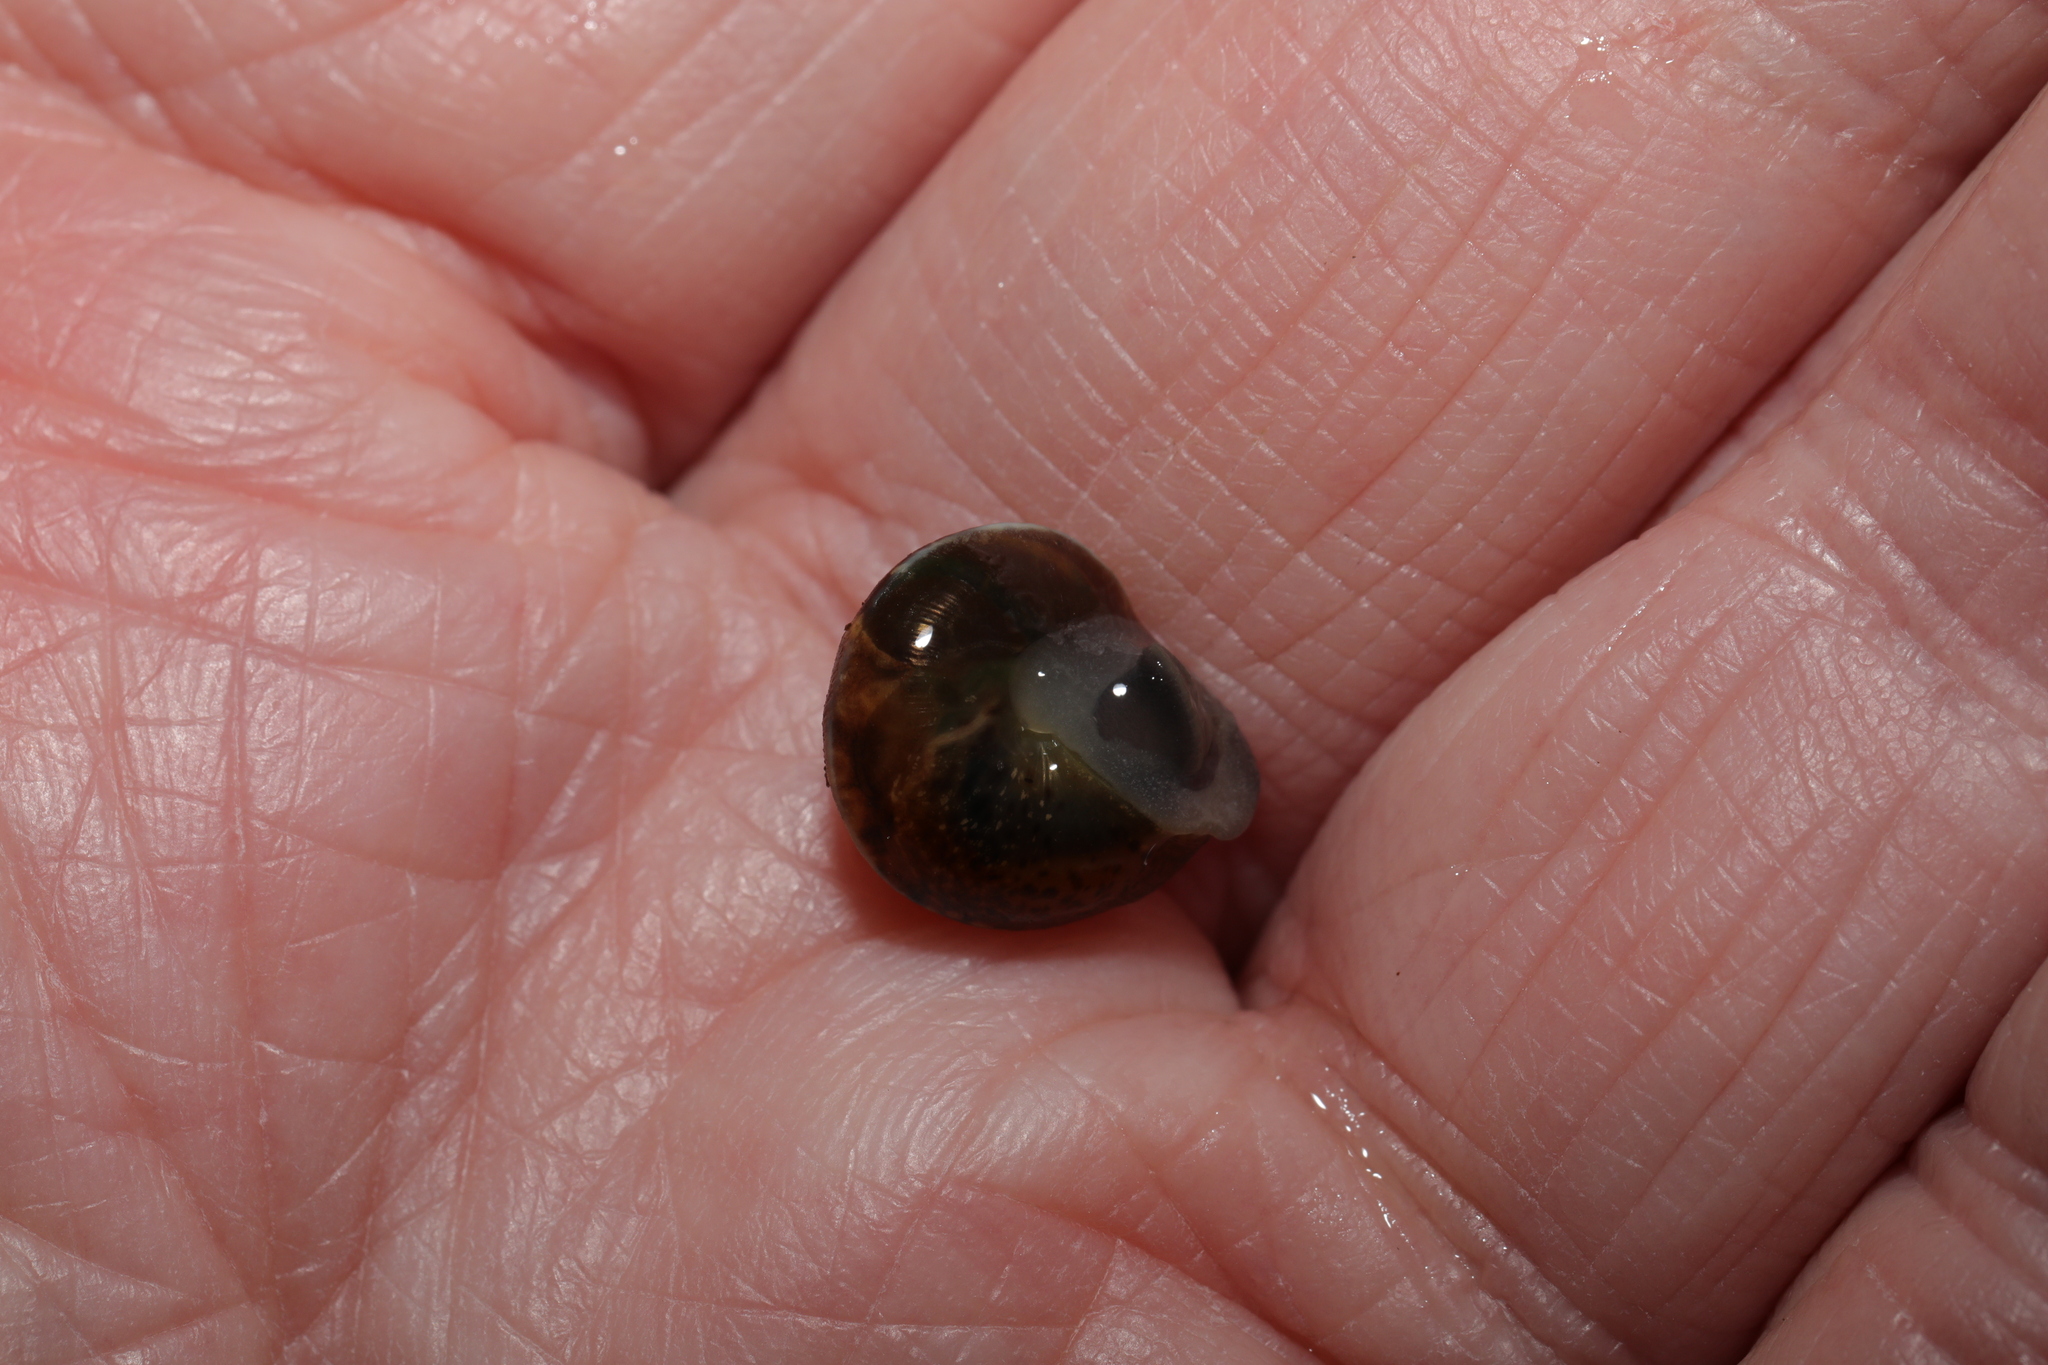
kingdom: Animalia
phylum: Mollusca
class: Gastropoda
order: Stylommatophora
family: Hygromiidae
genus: Hygromia
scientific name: Hygromia cinctella
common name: Girdled snail
